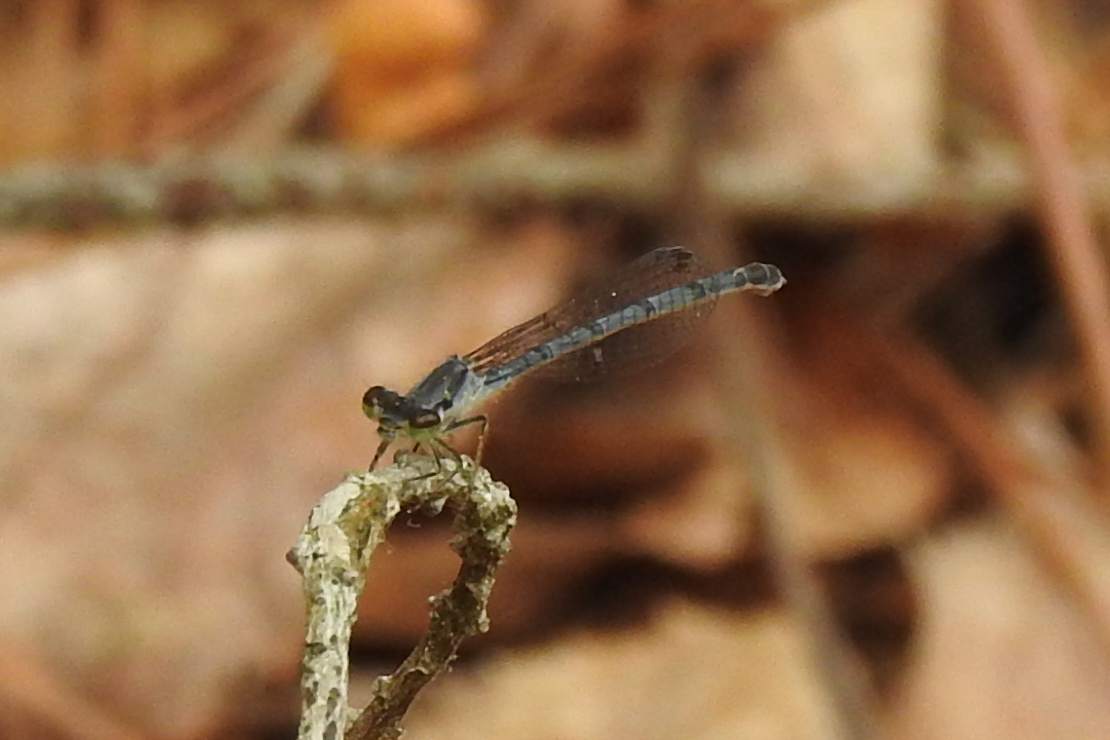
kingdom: Animalia
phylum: Arthropoda
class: Insecta
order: Odonata
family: Coenagrionidae
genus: Ischnura
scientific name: Ischnura posita
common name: Fragile forktail
